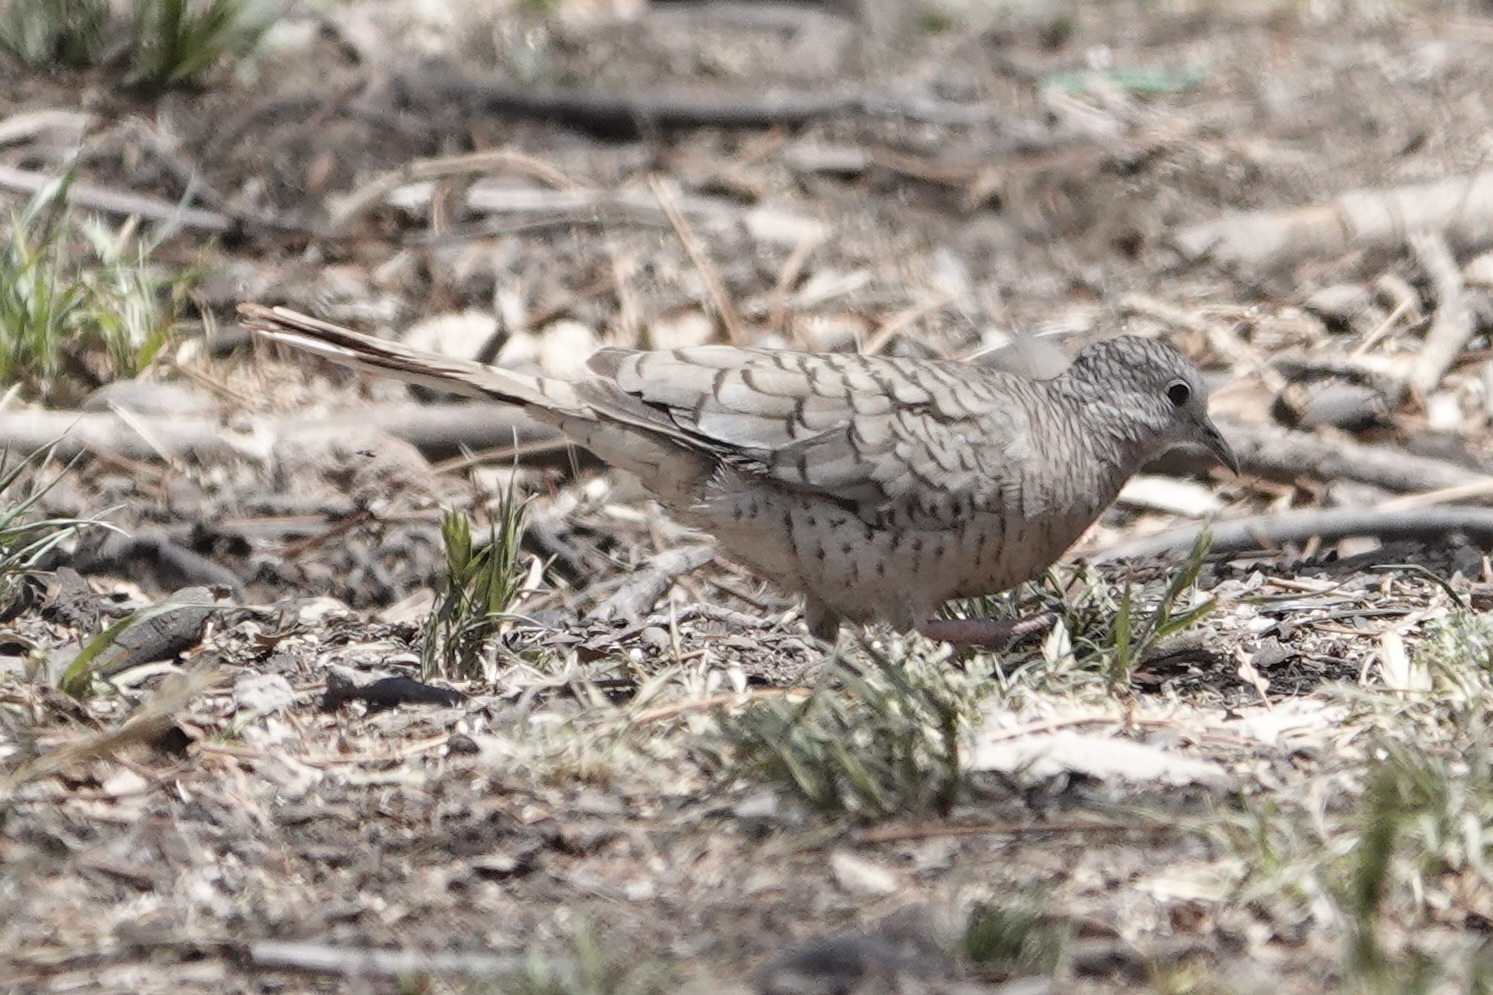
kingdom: Animalia
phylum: Chordata
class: Aves
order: Columbiformes
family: Columbidae
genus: Columbina
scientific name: Columbina inca
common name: Inca dove
